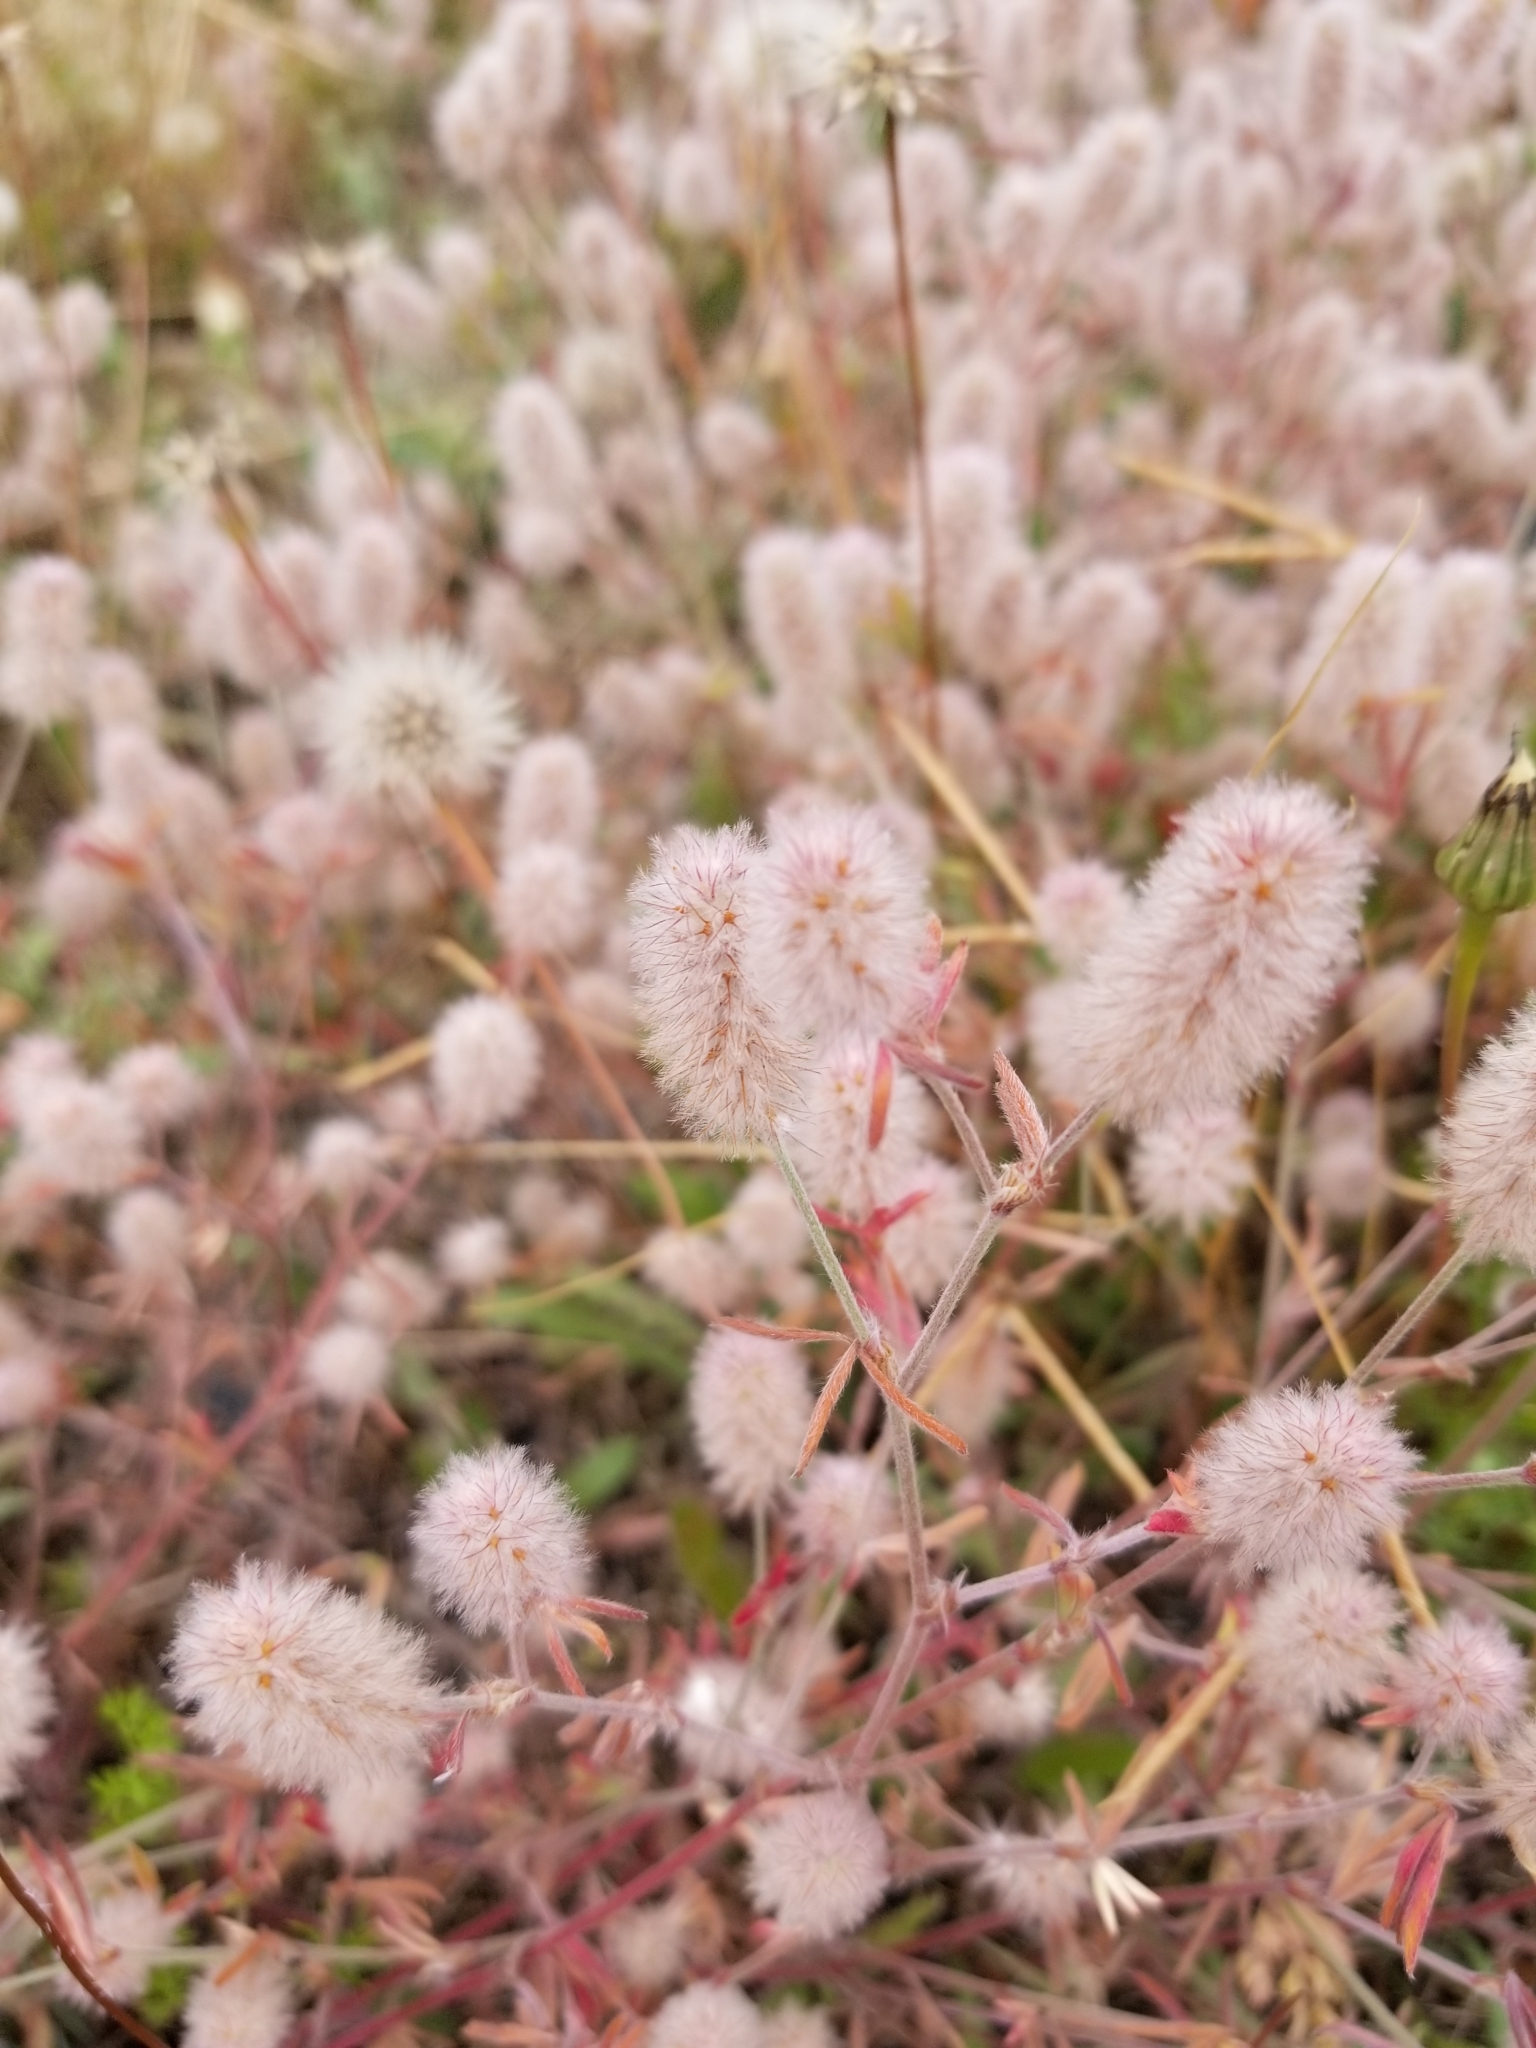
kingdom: Plantae
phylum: Tracheophyta
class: Magnoliopsida
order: Fabales
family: Fabaceae
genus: Trifolium
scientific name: Trifolium arvense
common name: Hare's-foot clover
